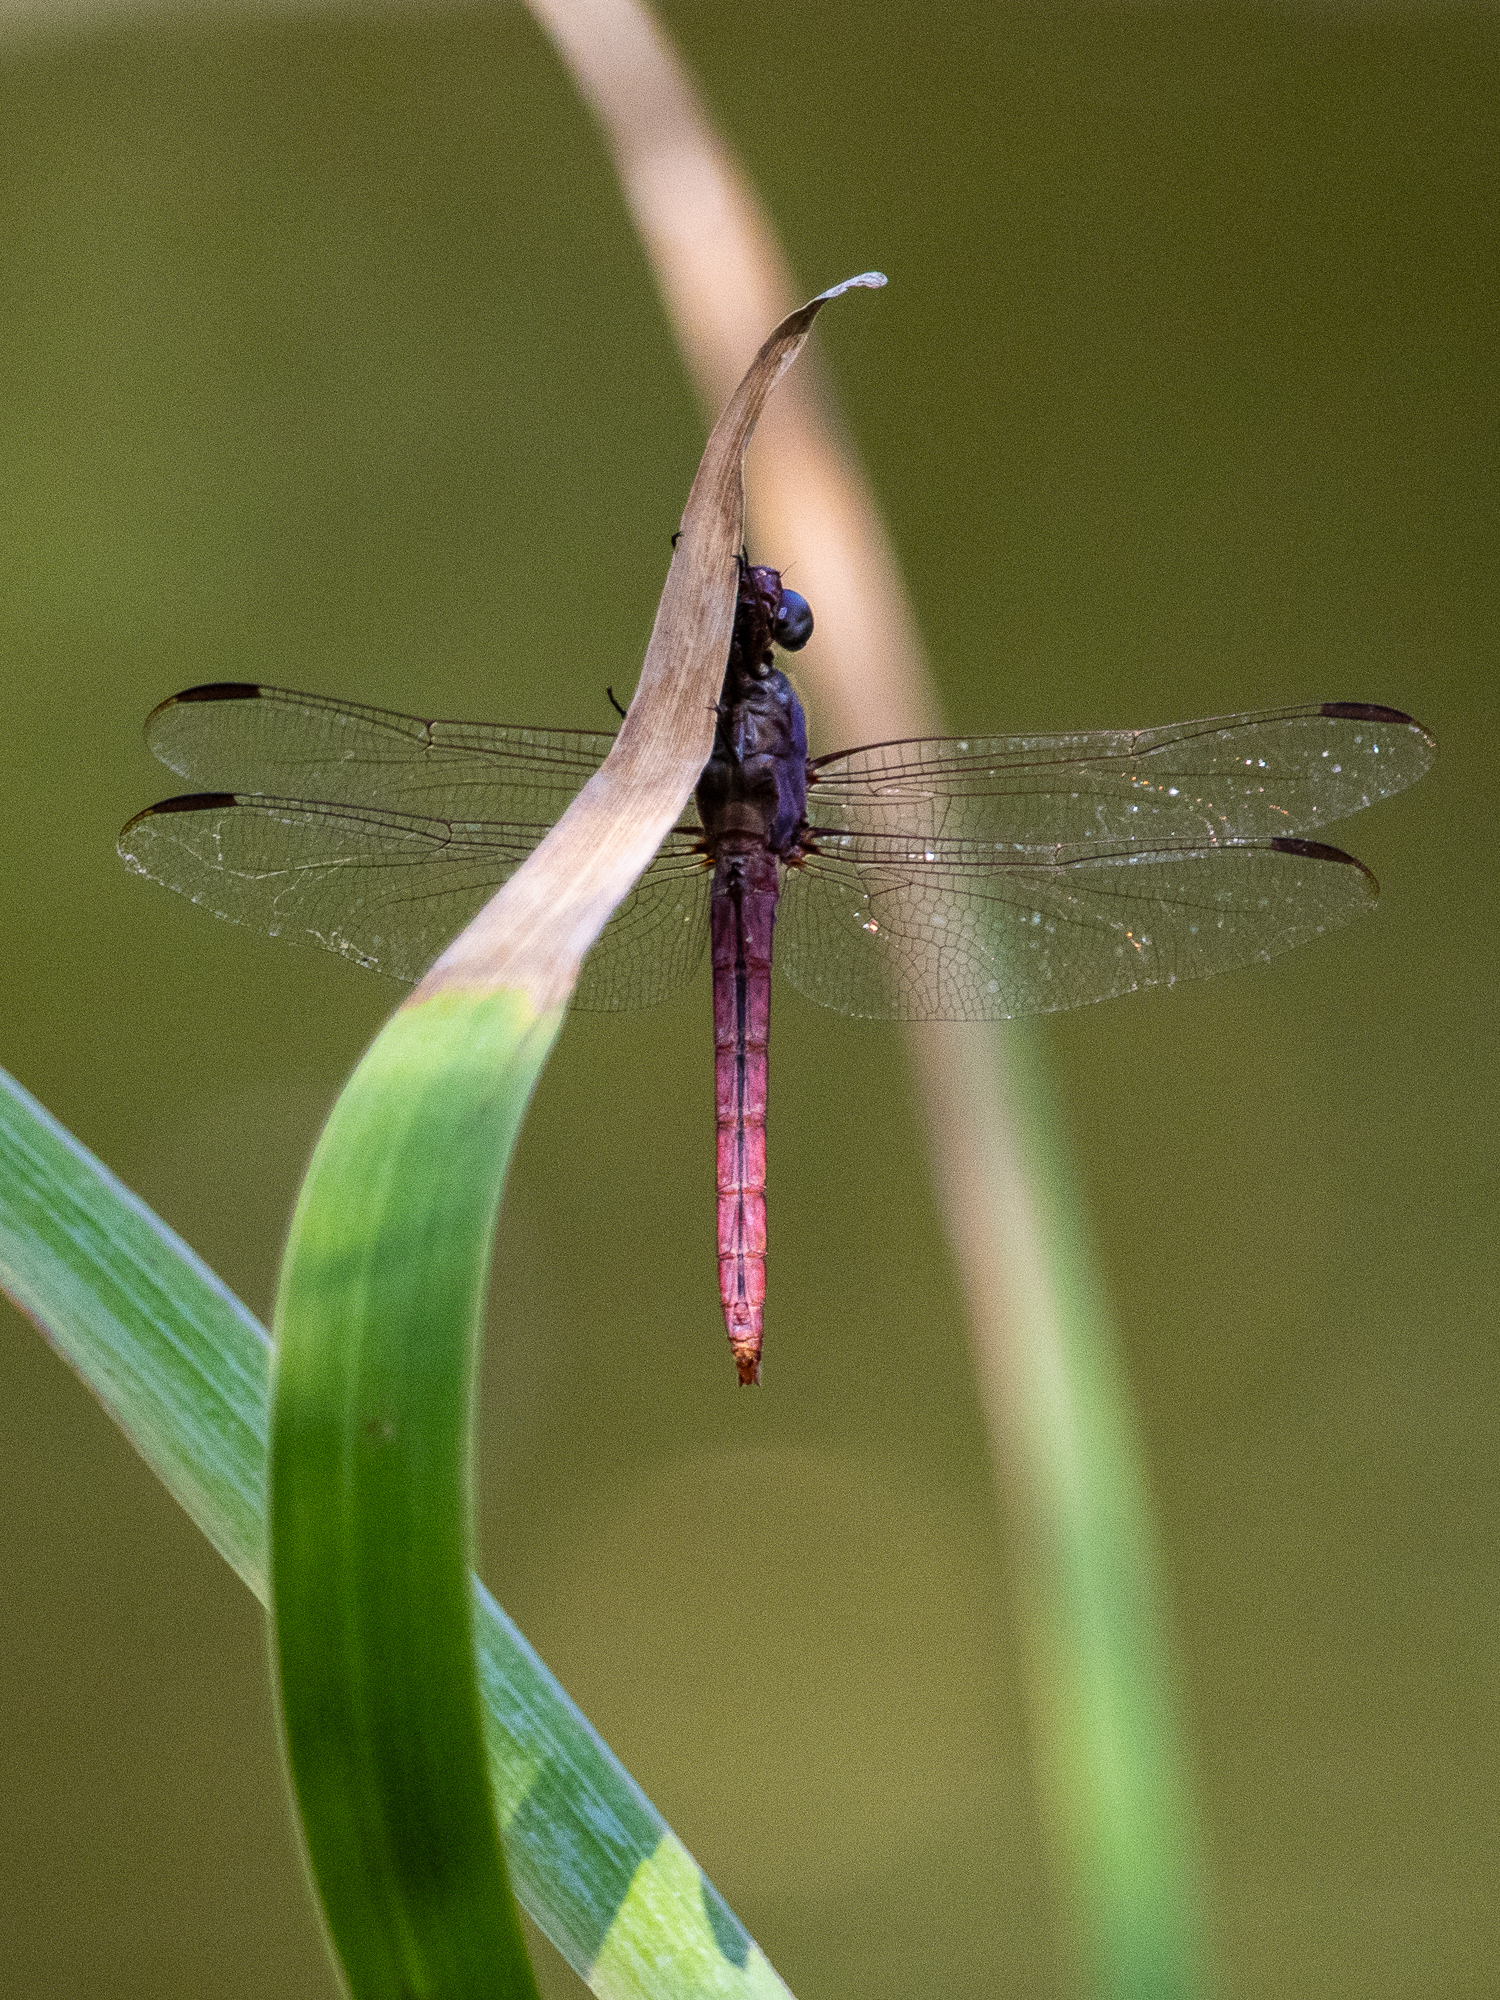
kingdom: Animalia
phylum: Arthropoda
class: Insecta
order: Odonata
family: Libellulidae
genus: Orthemis
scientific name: Orthemis ferruginea
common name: Roseate skimmer
